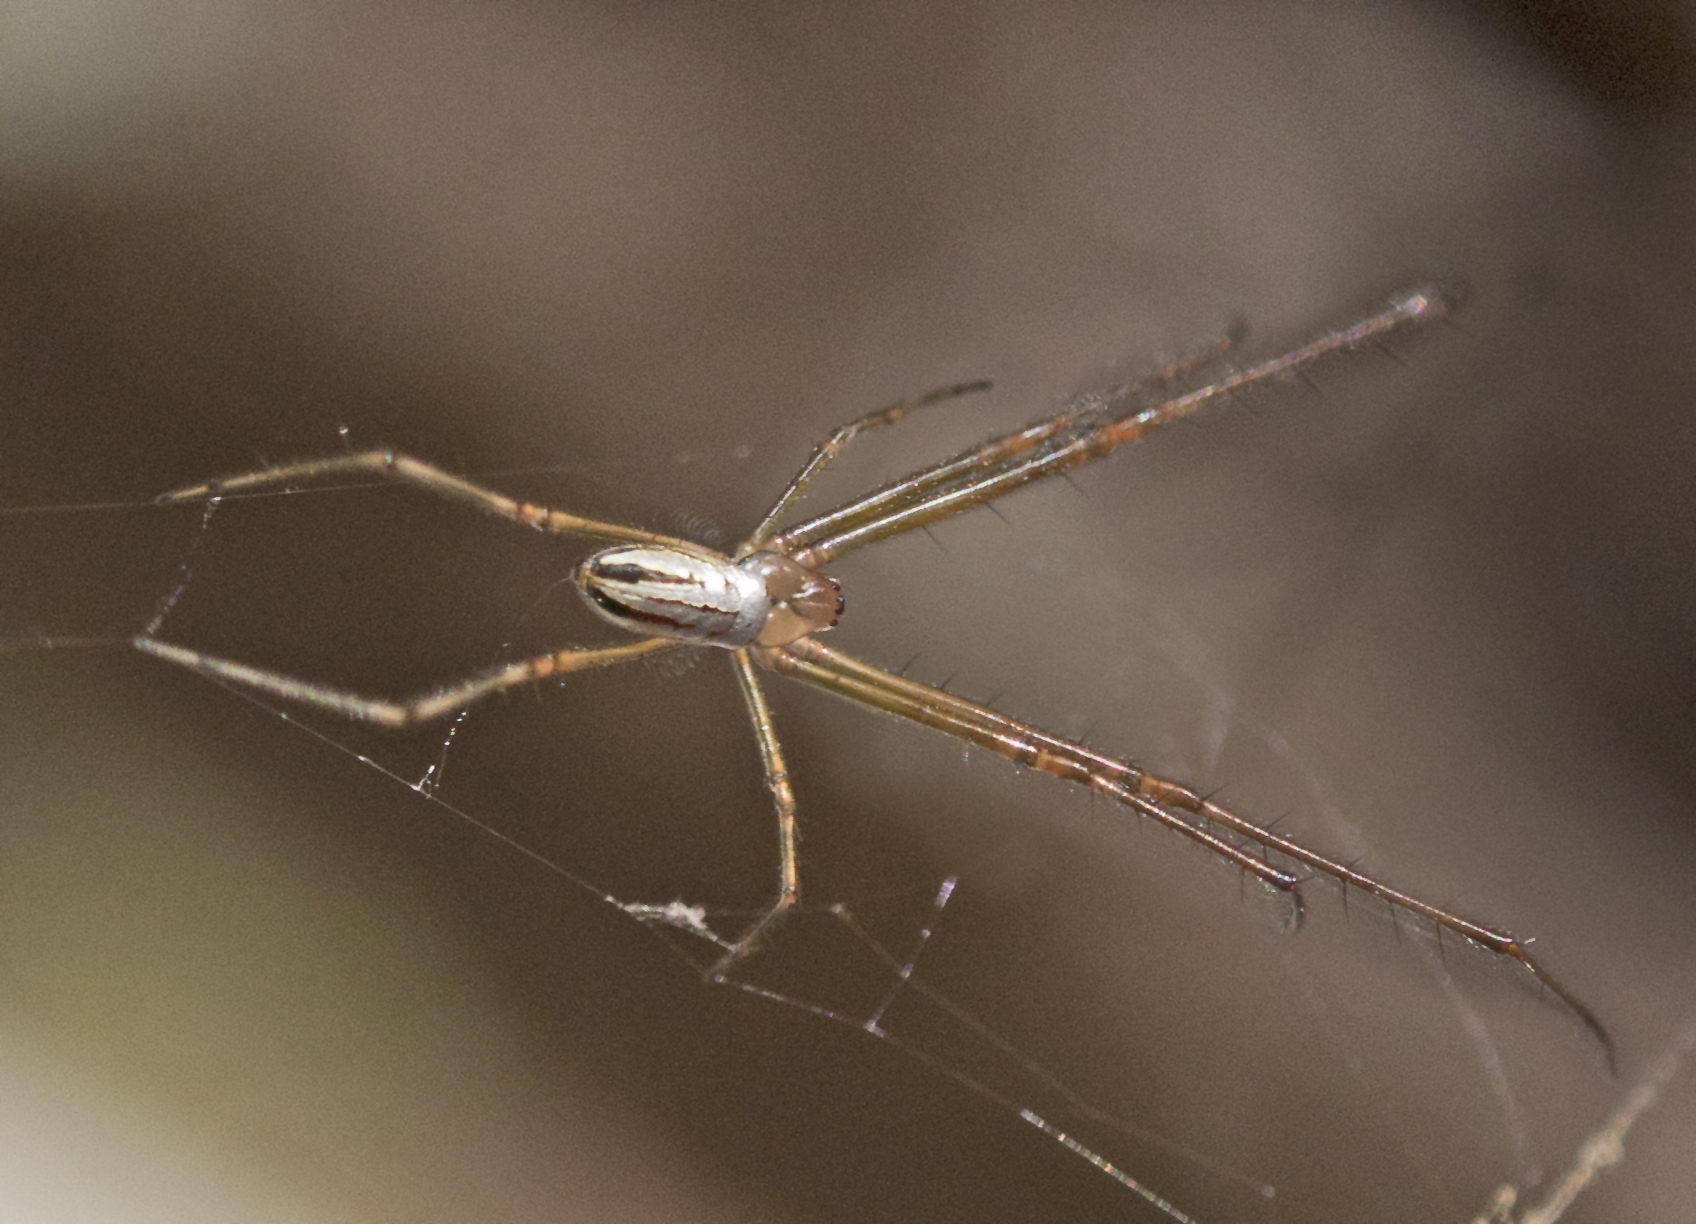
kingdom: Animalia
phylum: Arthropoda
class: Arachnida
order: Araneae
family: Tetragnathidae
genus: Leucauge
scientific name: Leucauge dromedaria
